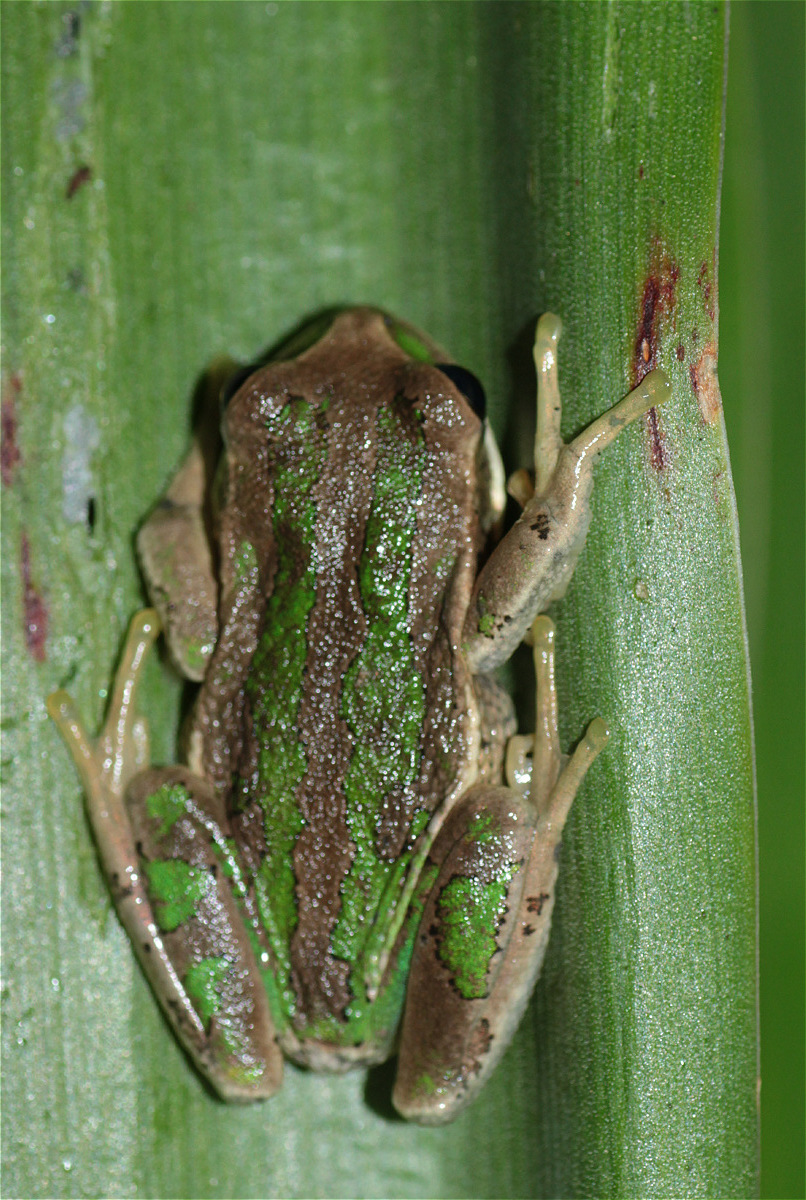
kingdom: Animalia
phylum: Chordata
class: Amphibia
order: Anura
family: Hemiphractidae
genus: Gastrotheca
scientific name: Gastrotheca cuencana
